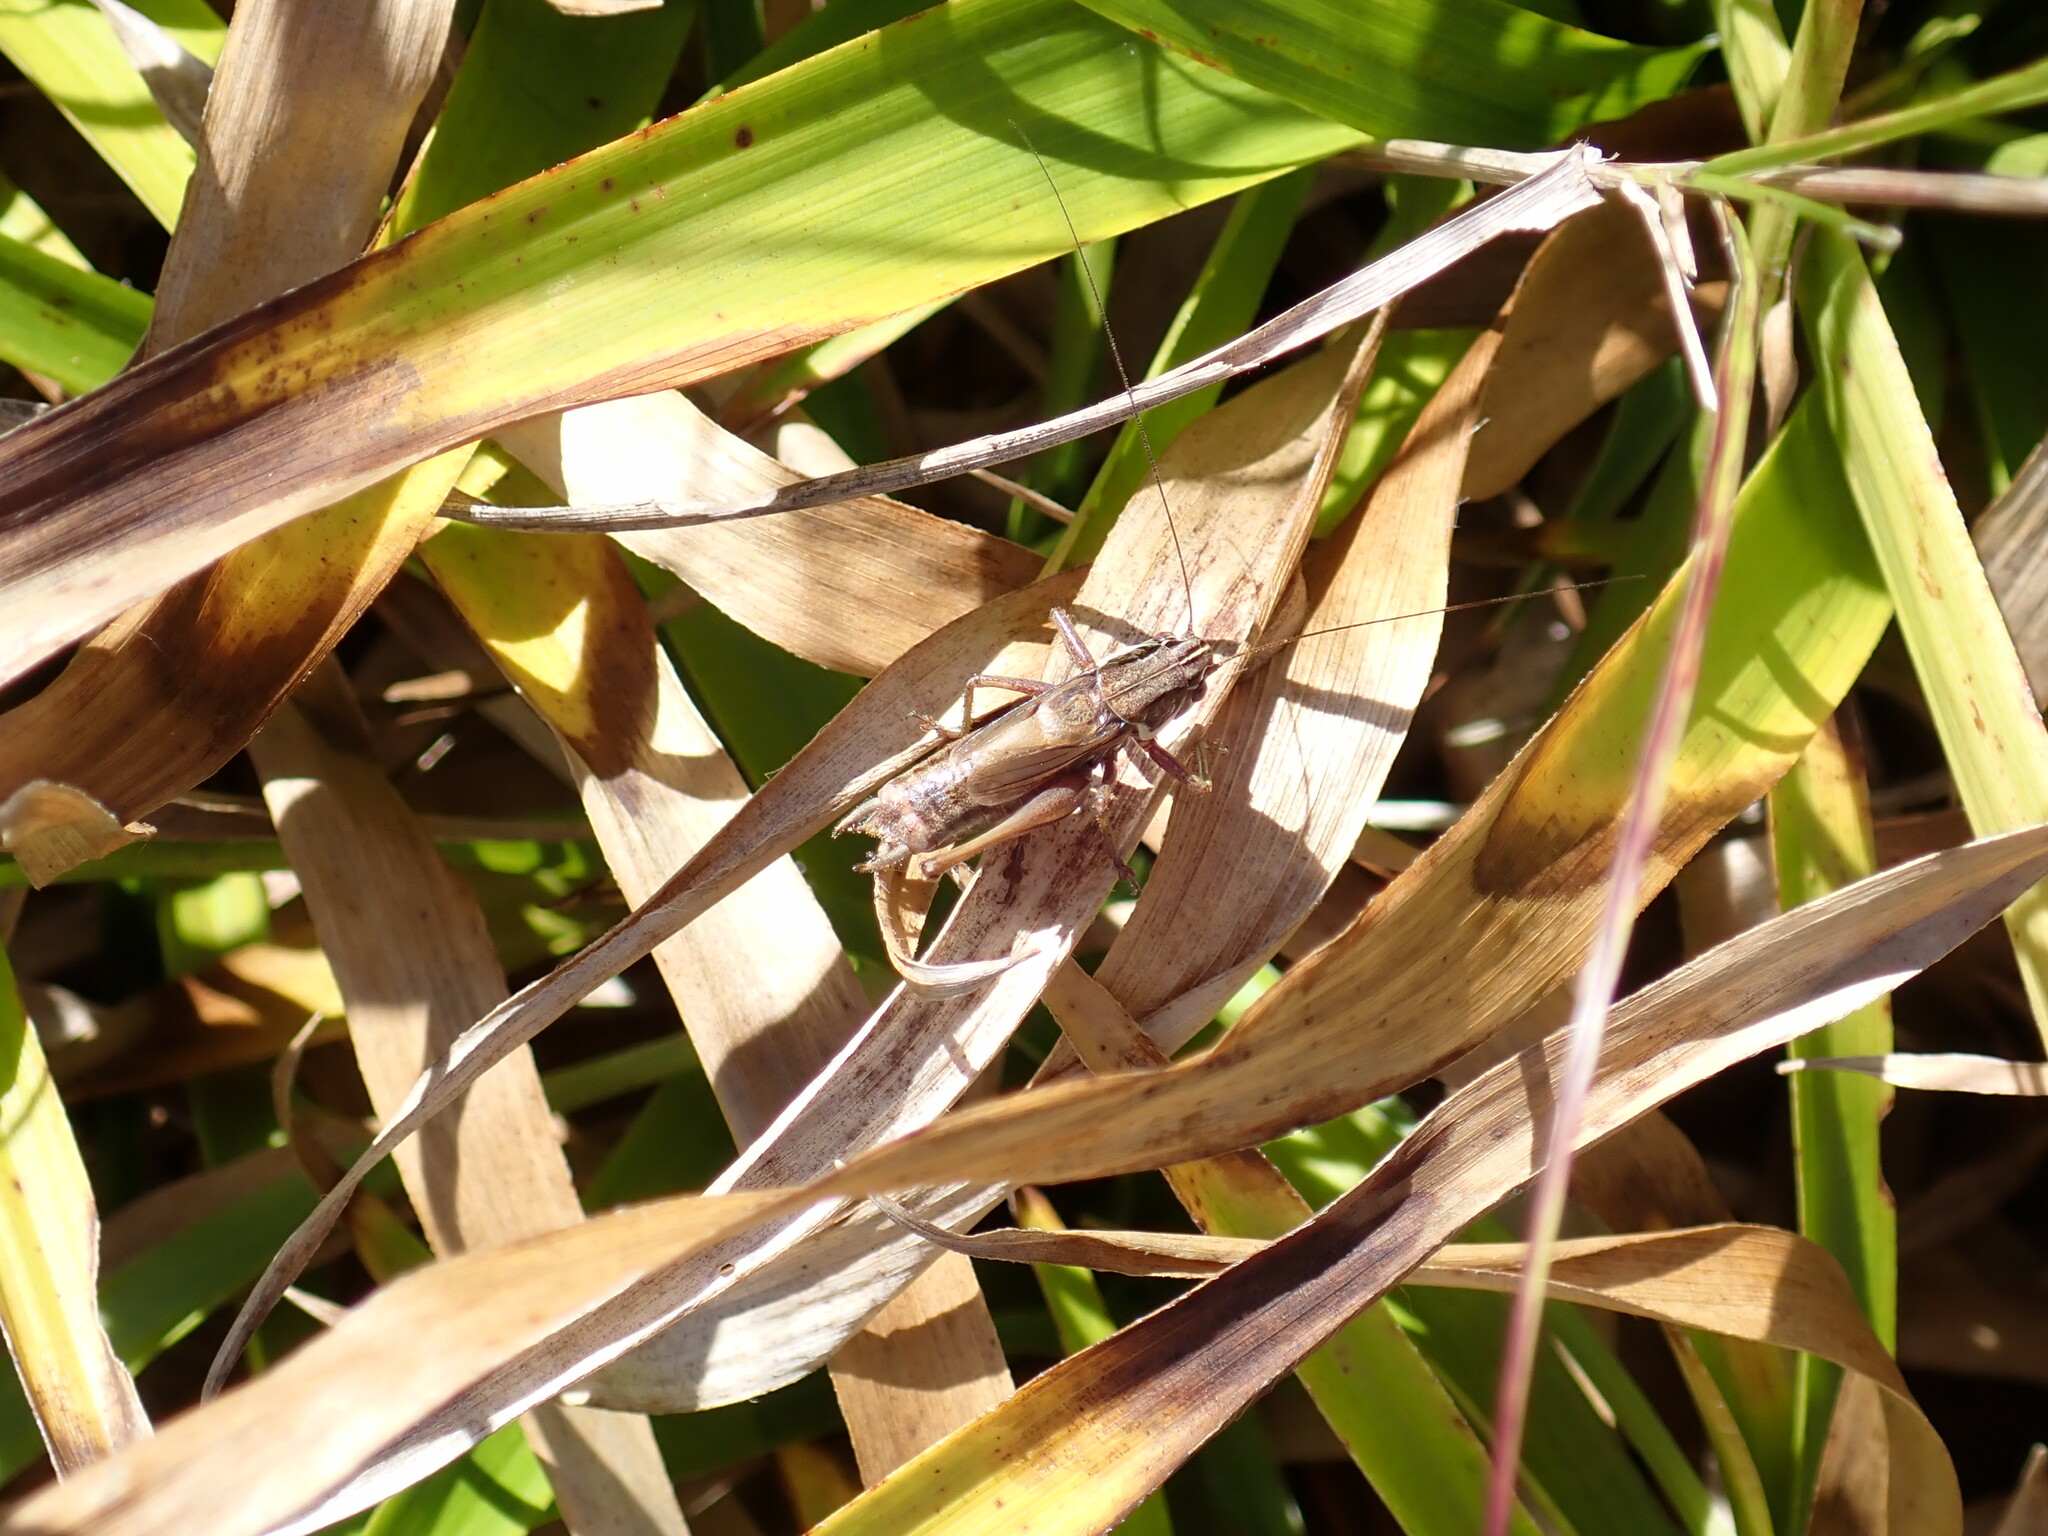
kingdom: Animalia
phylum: Arthropoda
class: Insecta
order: Orthoptera
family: Tettigoniidae
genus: Roeseliana
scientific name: Roeseliana roeselii
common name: Roesel's bush cricket
